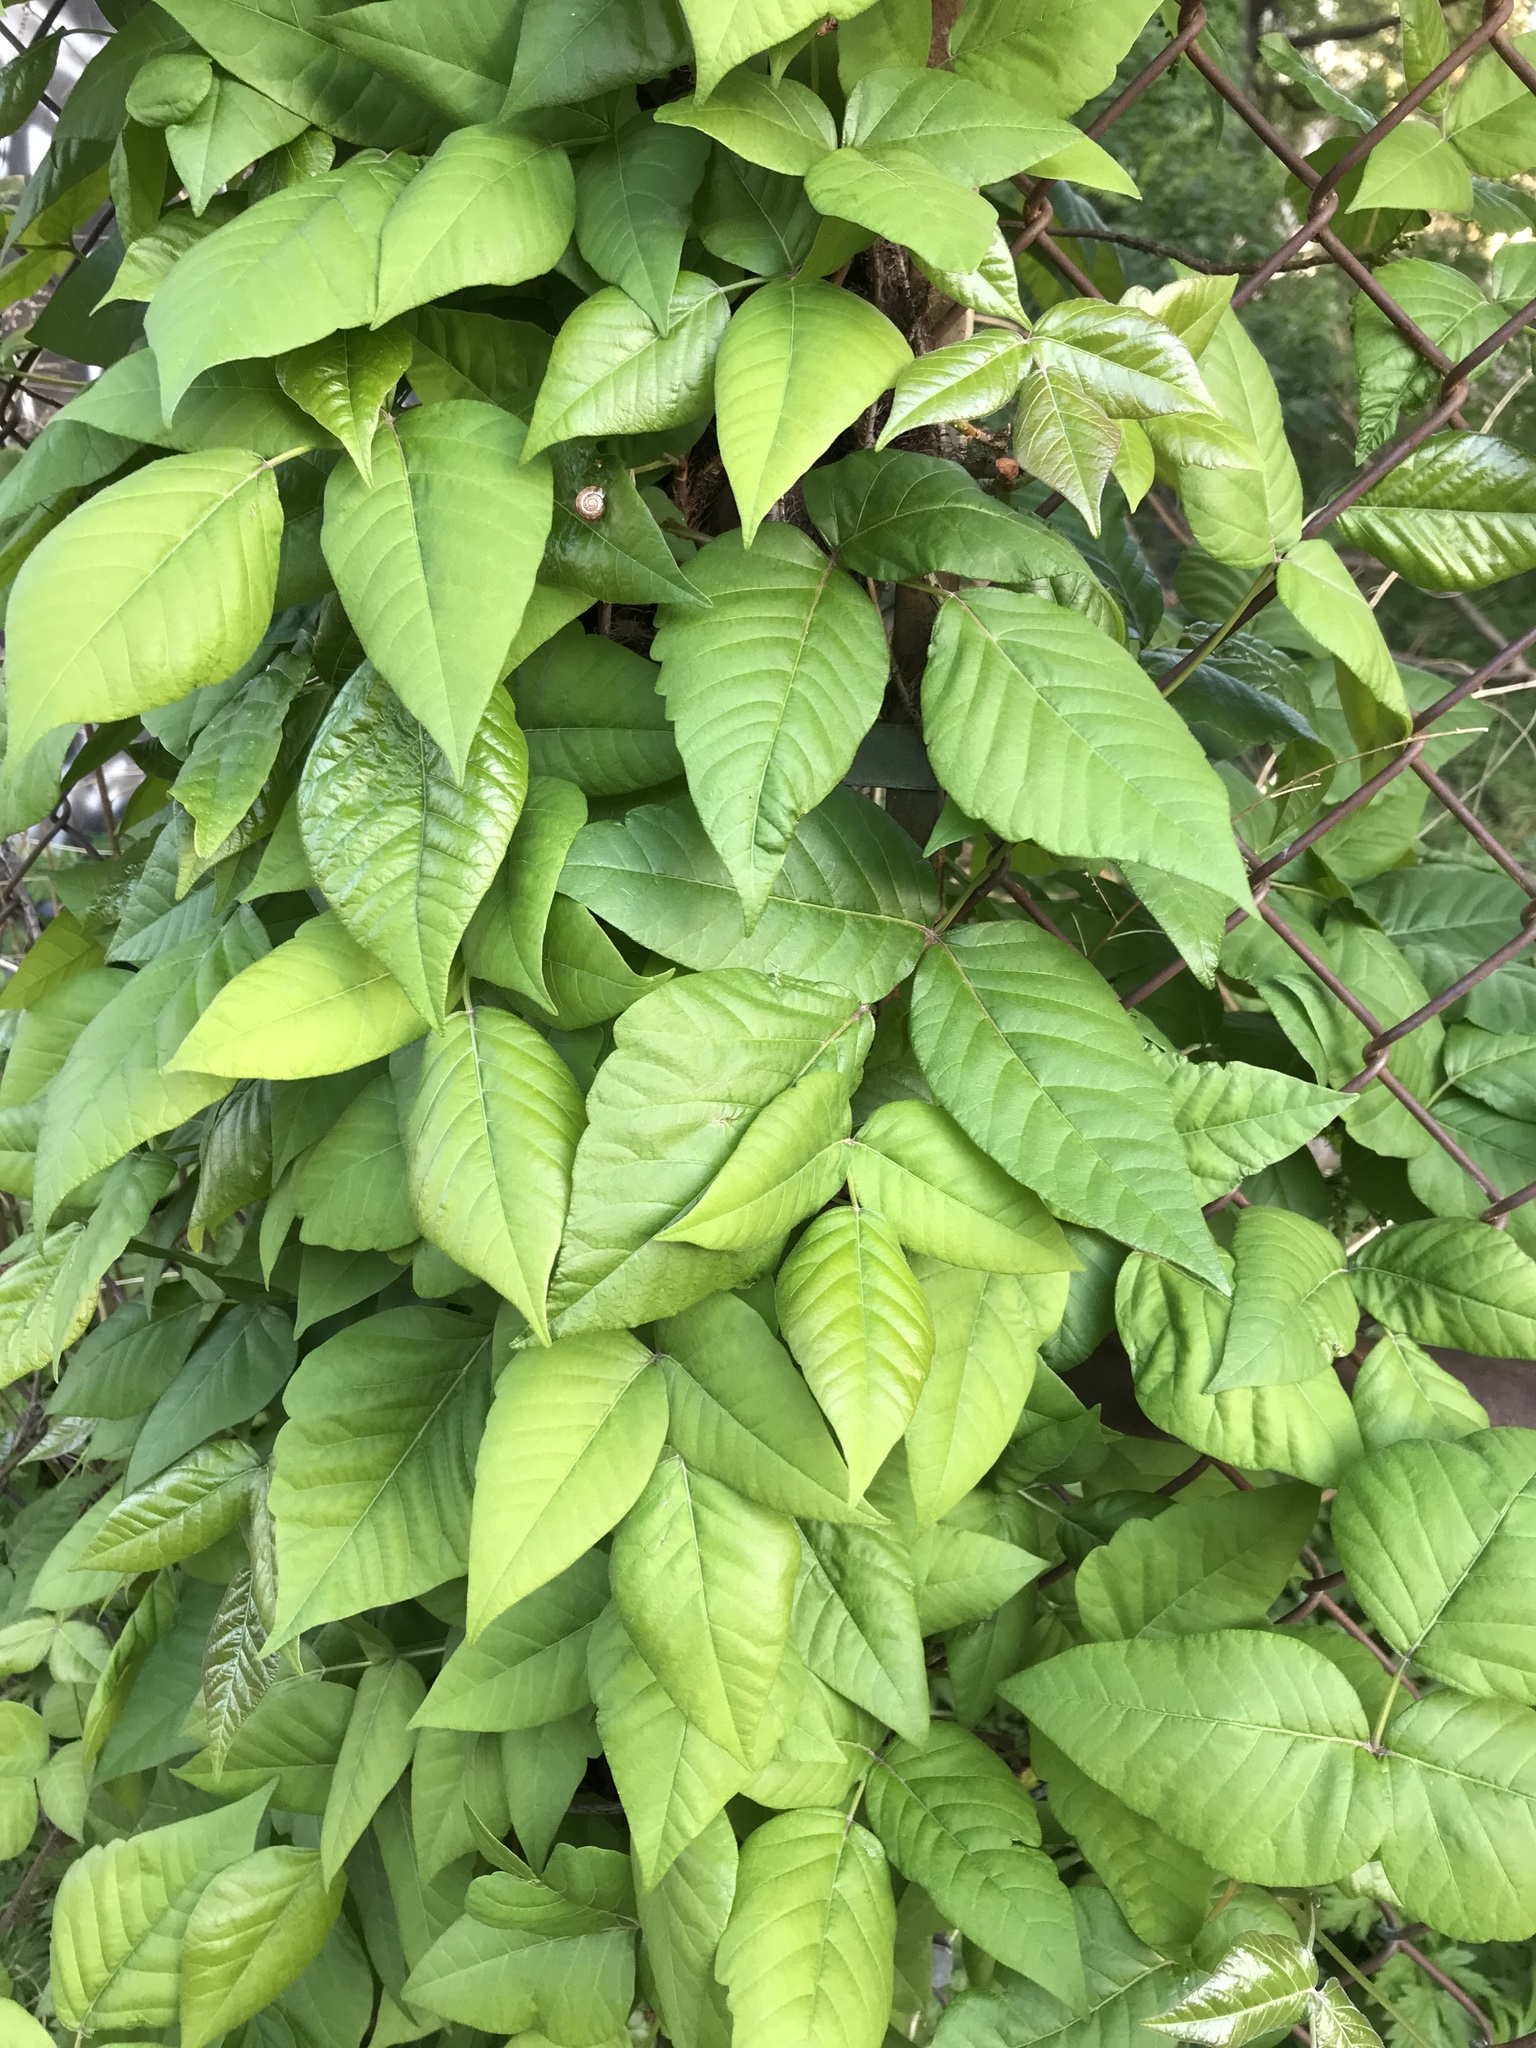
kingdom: Plantae
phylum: Tracheophyta
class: Magnoliopsida
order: Sapindales
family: Anacardiaceae
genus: Toxicodendron
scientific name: Toxicodendron radicans
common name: Poison ivy
